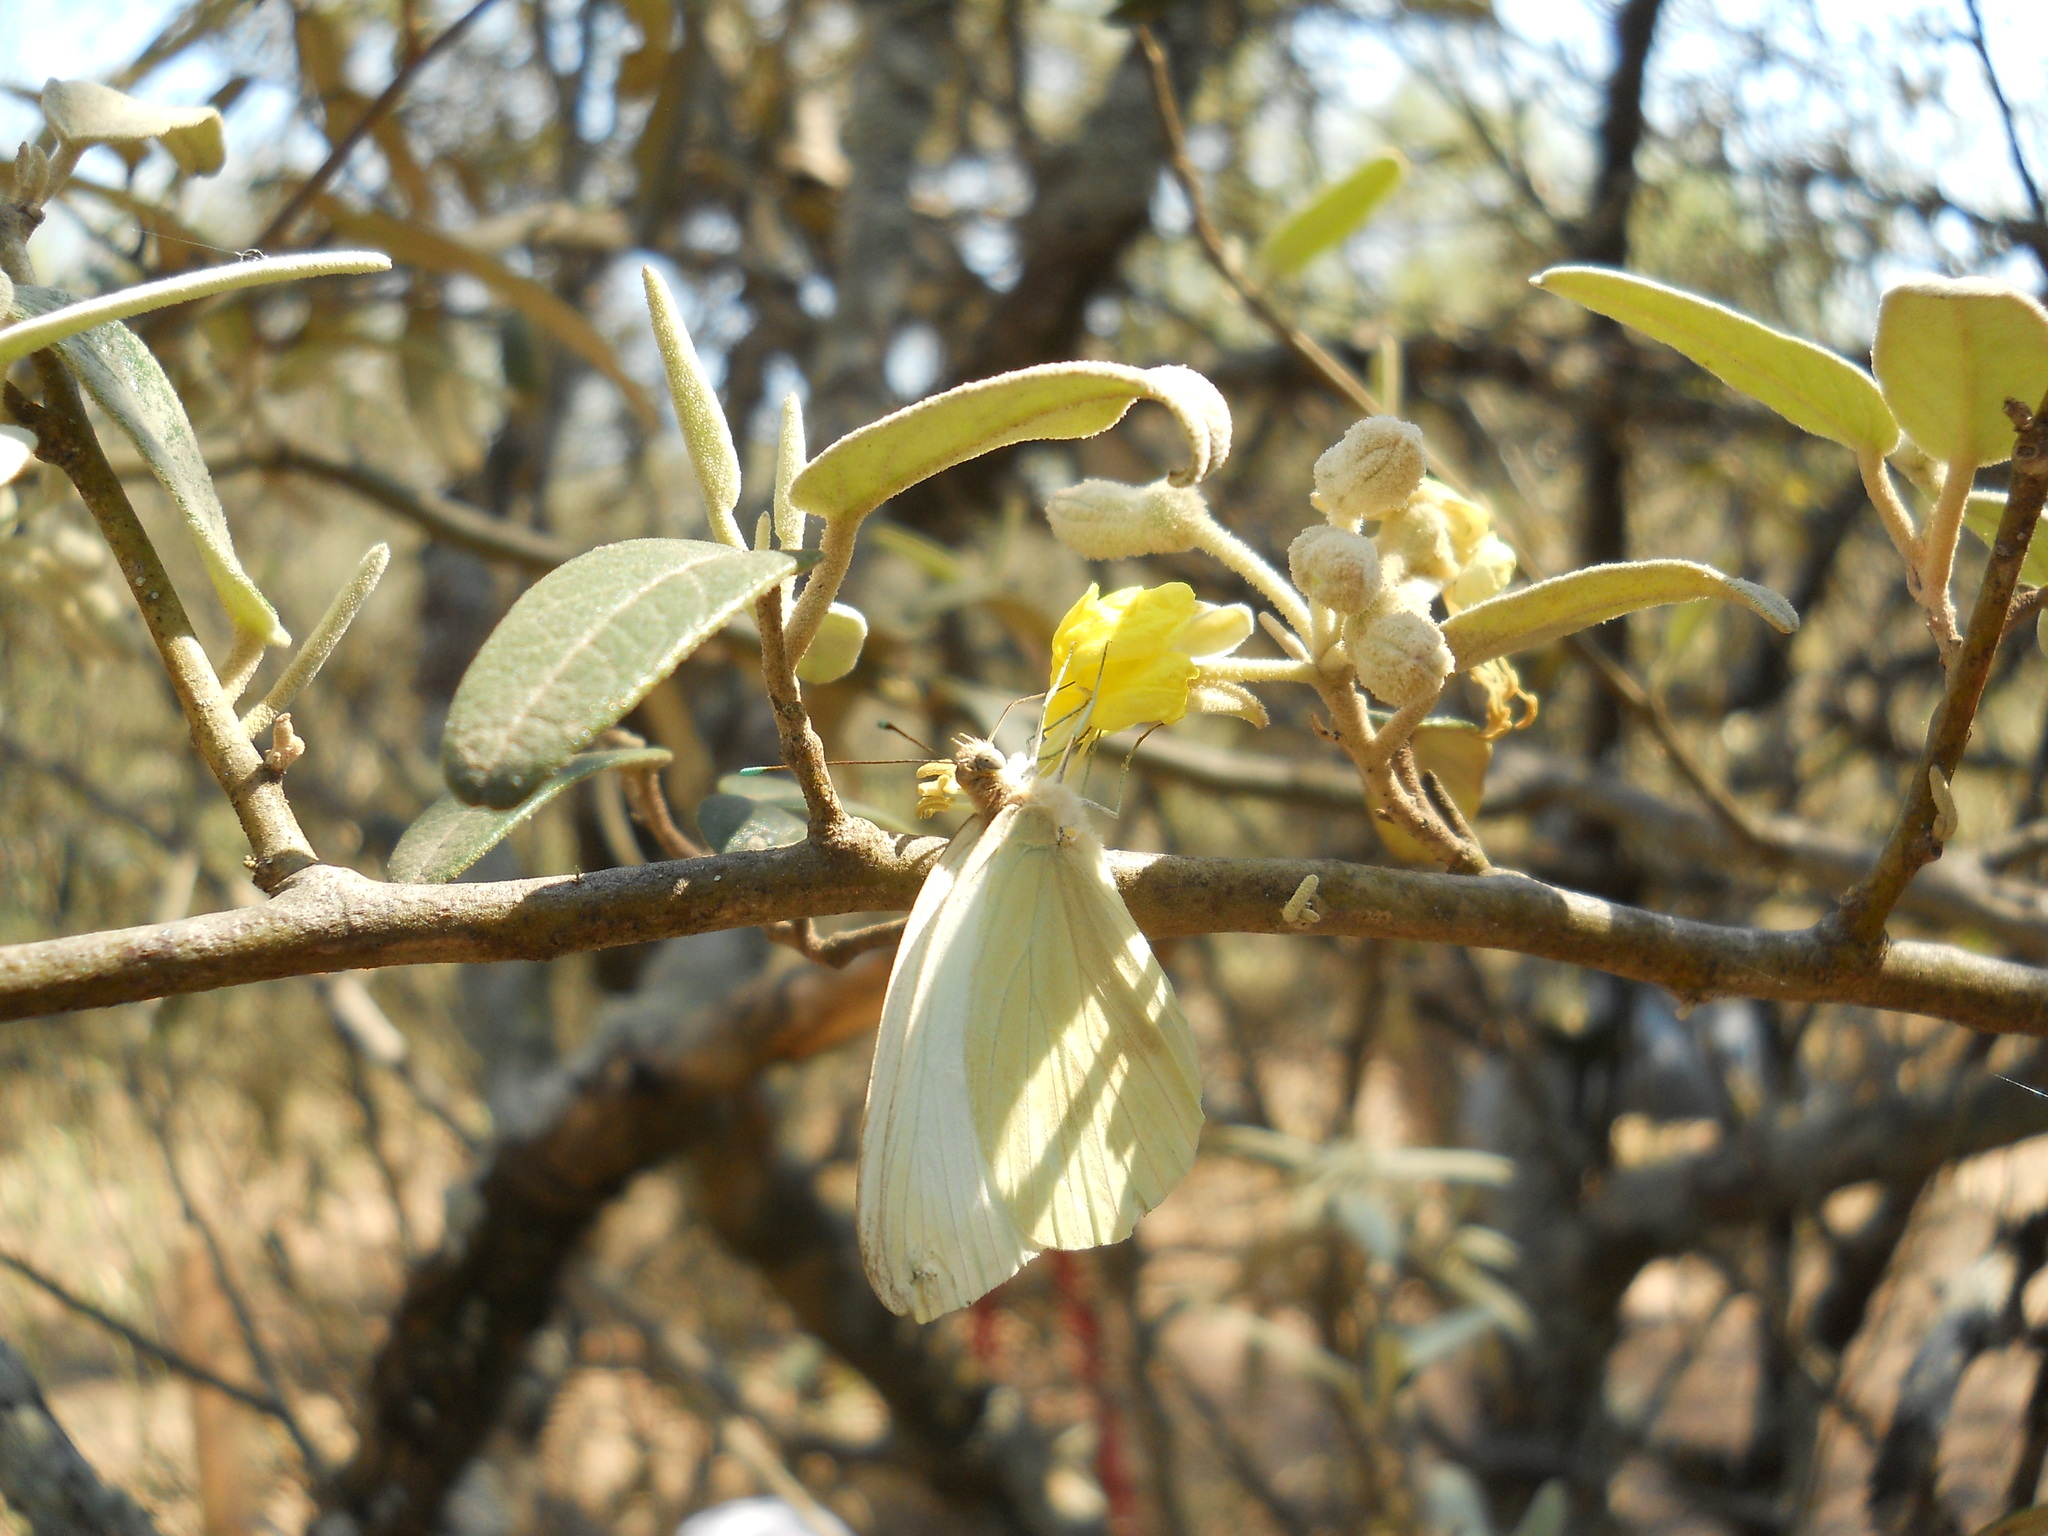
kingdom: Animalia
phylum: Arthropoda
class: Insecta
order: Lepidoptera
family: Pieridae
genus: Ascia
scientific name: Ascia monuste
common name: Great southern white
